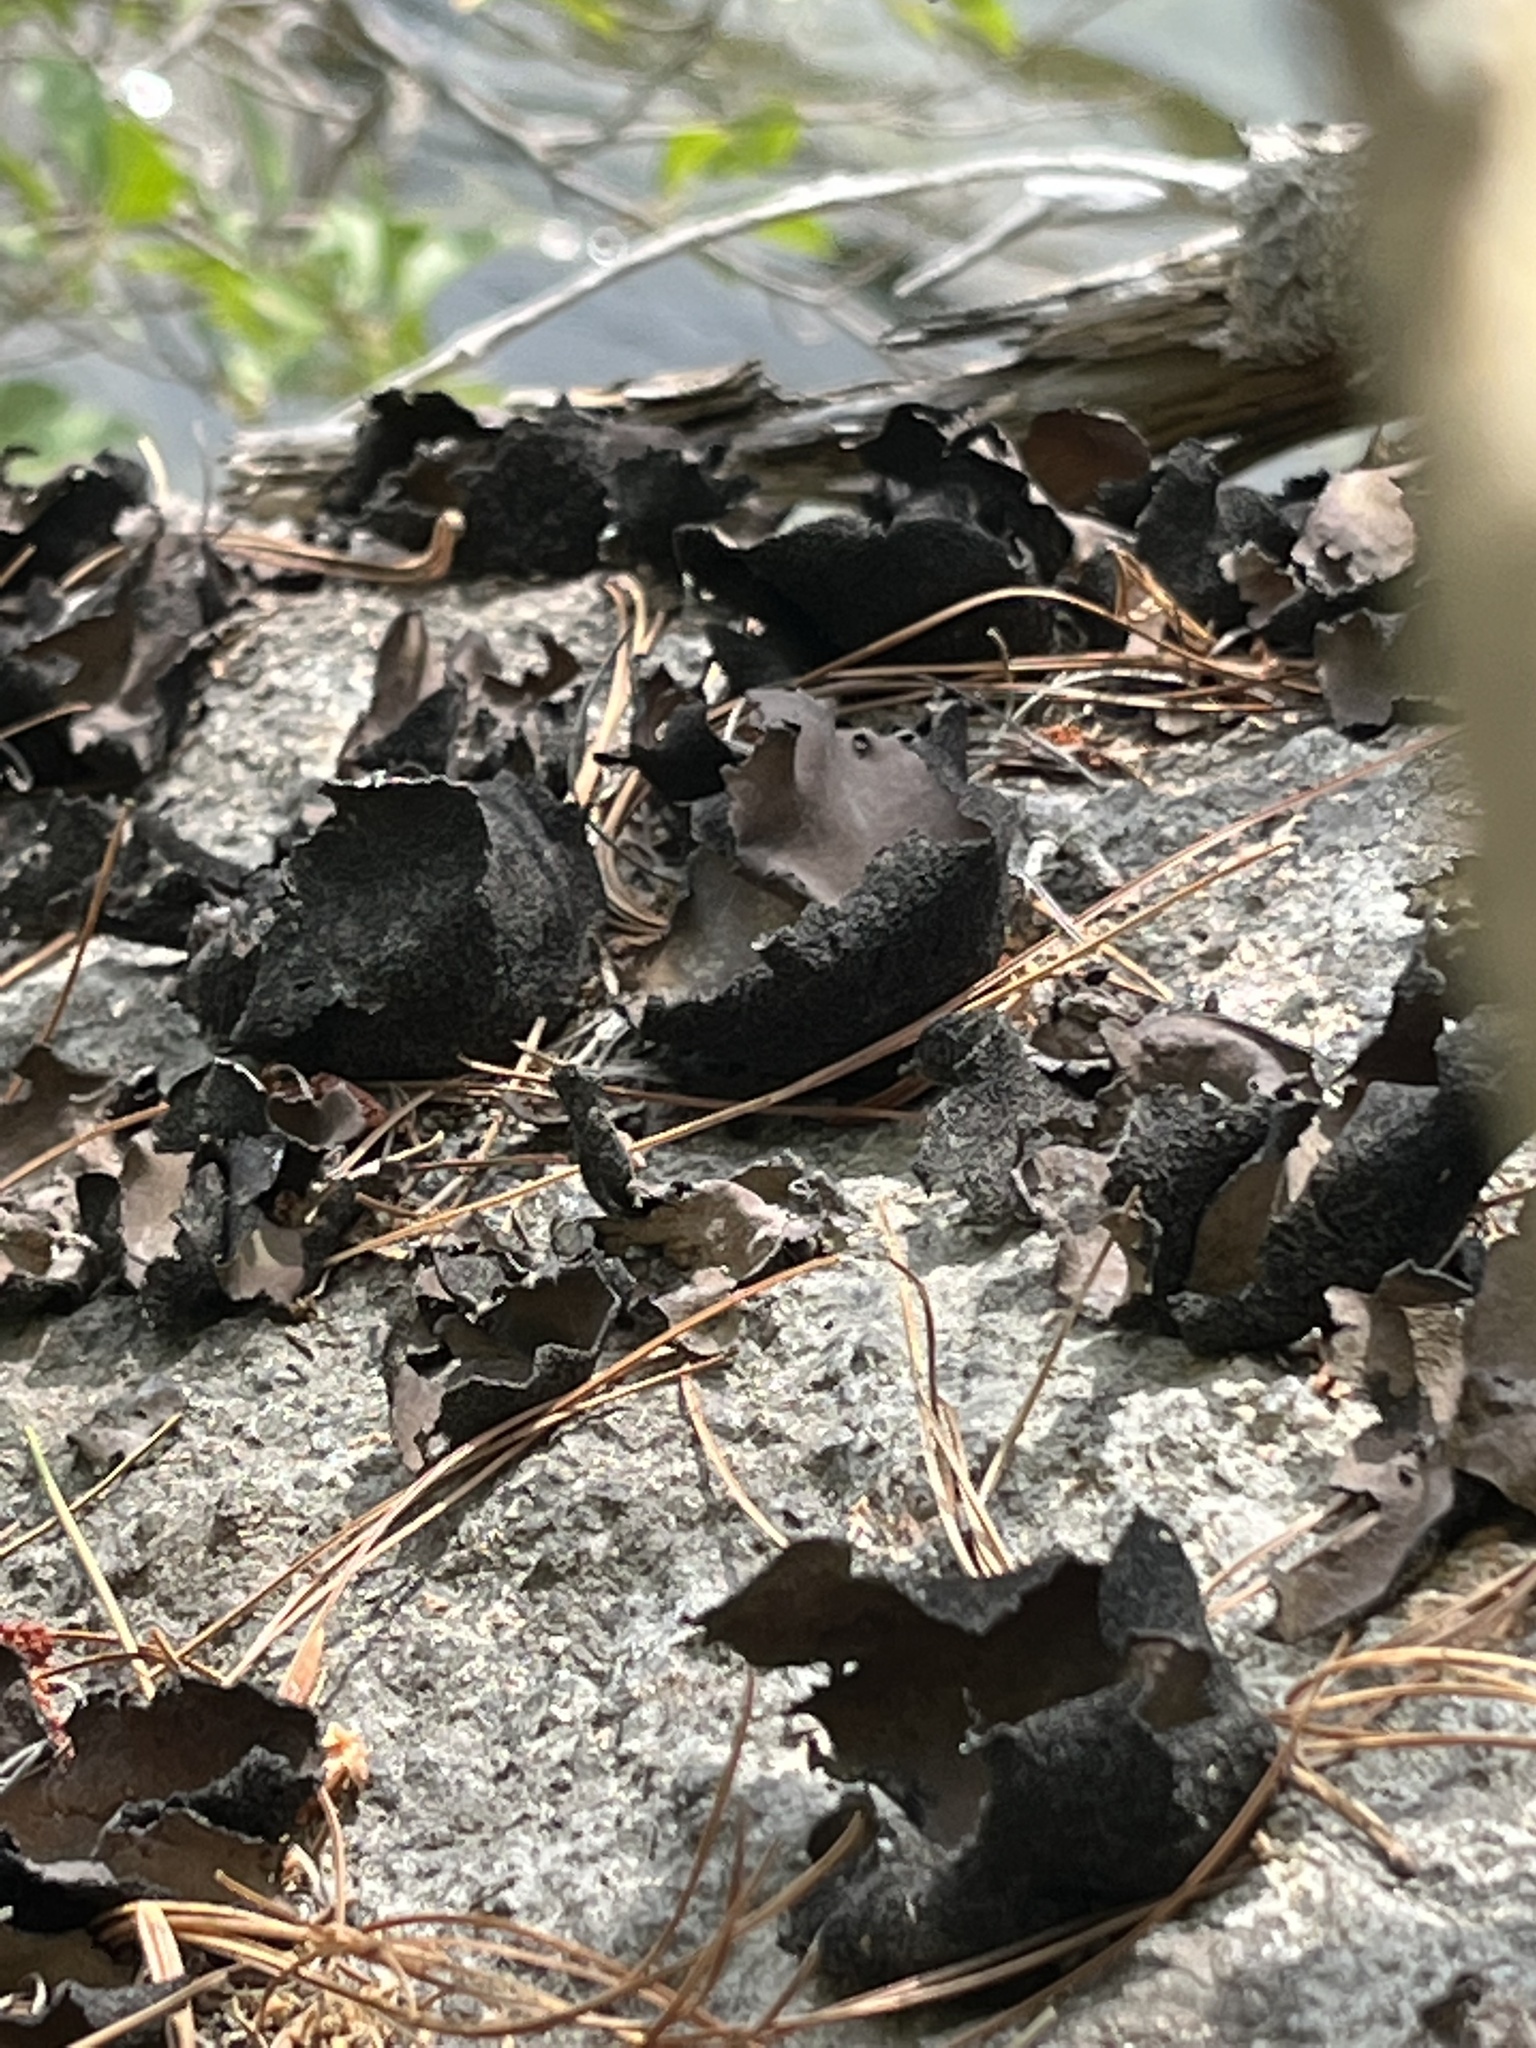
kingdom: Fungi
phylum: Ascomycota
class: Lecanoromycetes
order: Umbilicariales
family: Umbilicariaceae
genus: Umbilicaria
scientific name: Umbilicaria mammulata
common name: Smooth rock tripe
